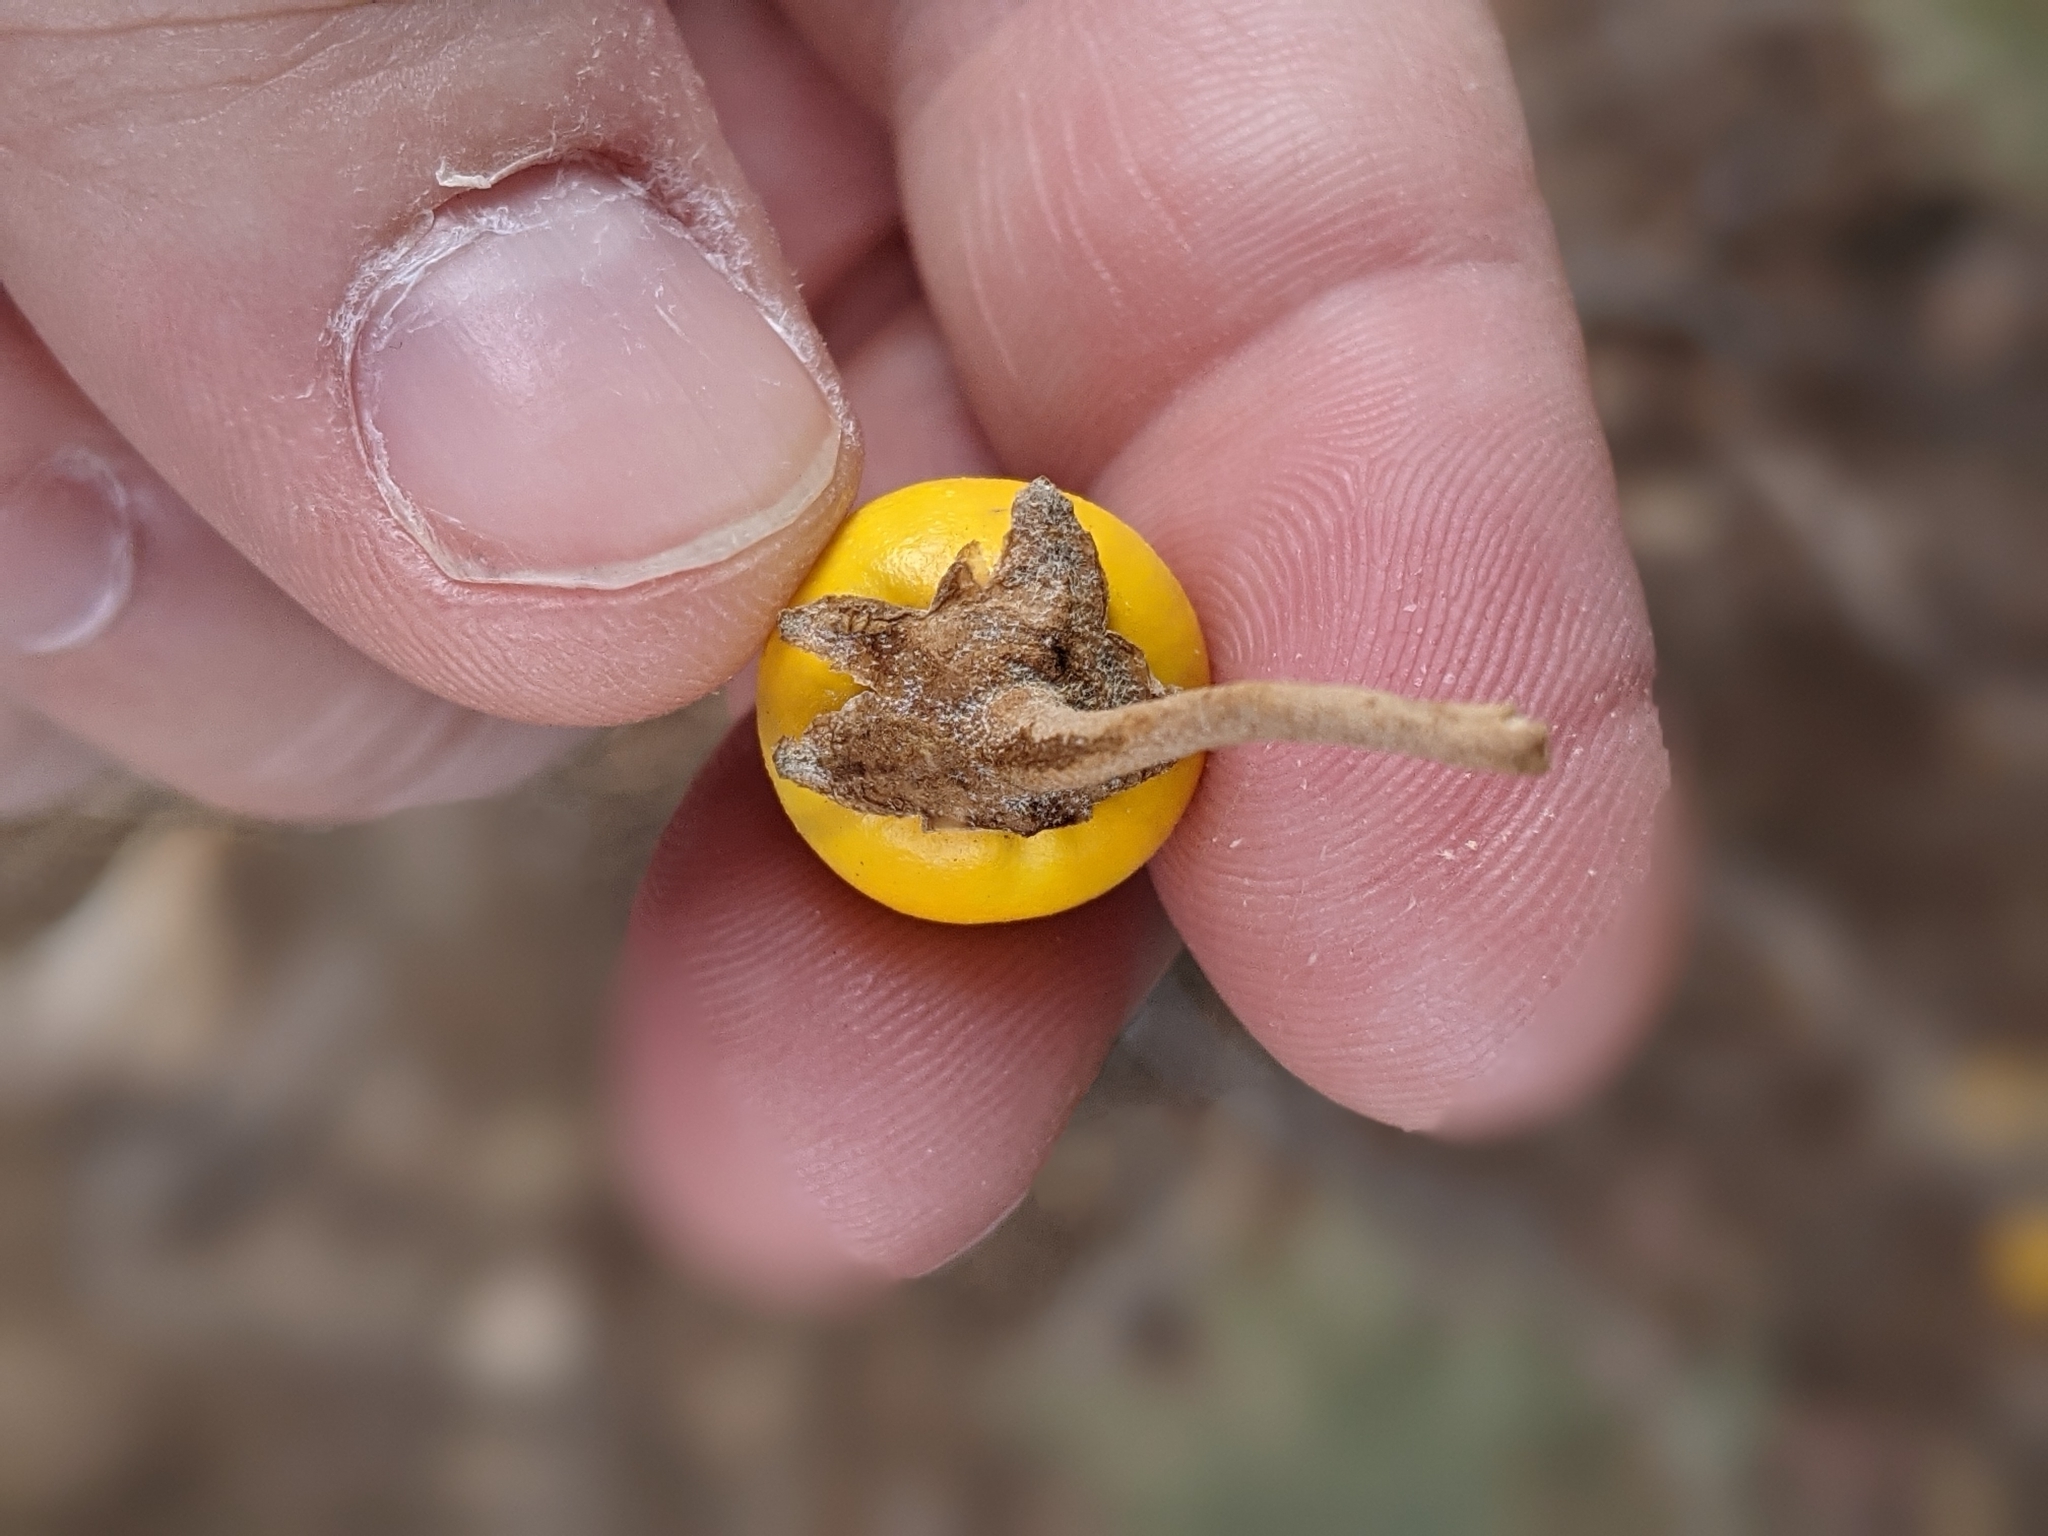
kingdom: Plantae
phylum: Tracheophyta
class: Magnoliopsida
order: Solanales
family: Solanaceae
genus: Solanum
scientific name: Solanum elaeagnifolium
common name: Silverleaf nightshade
